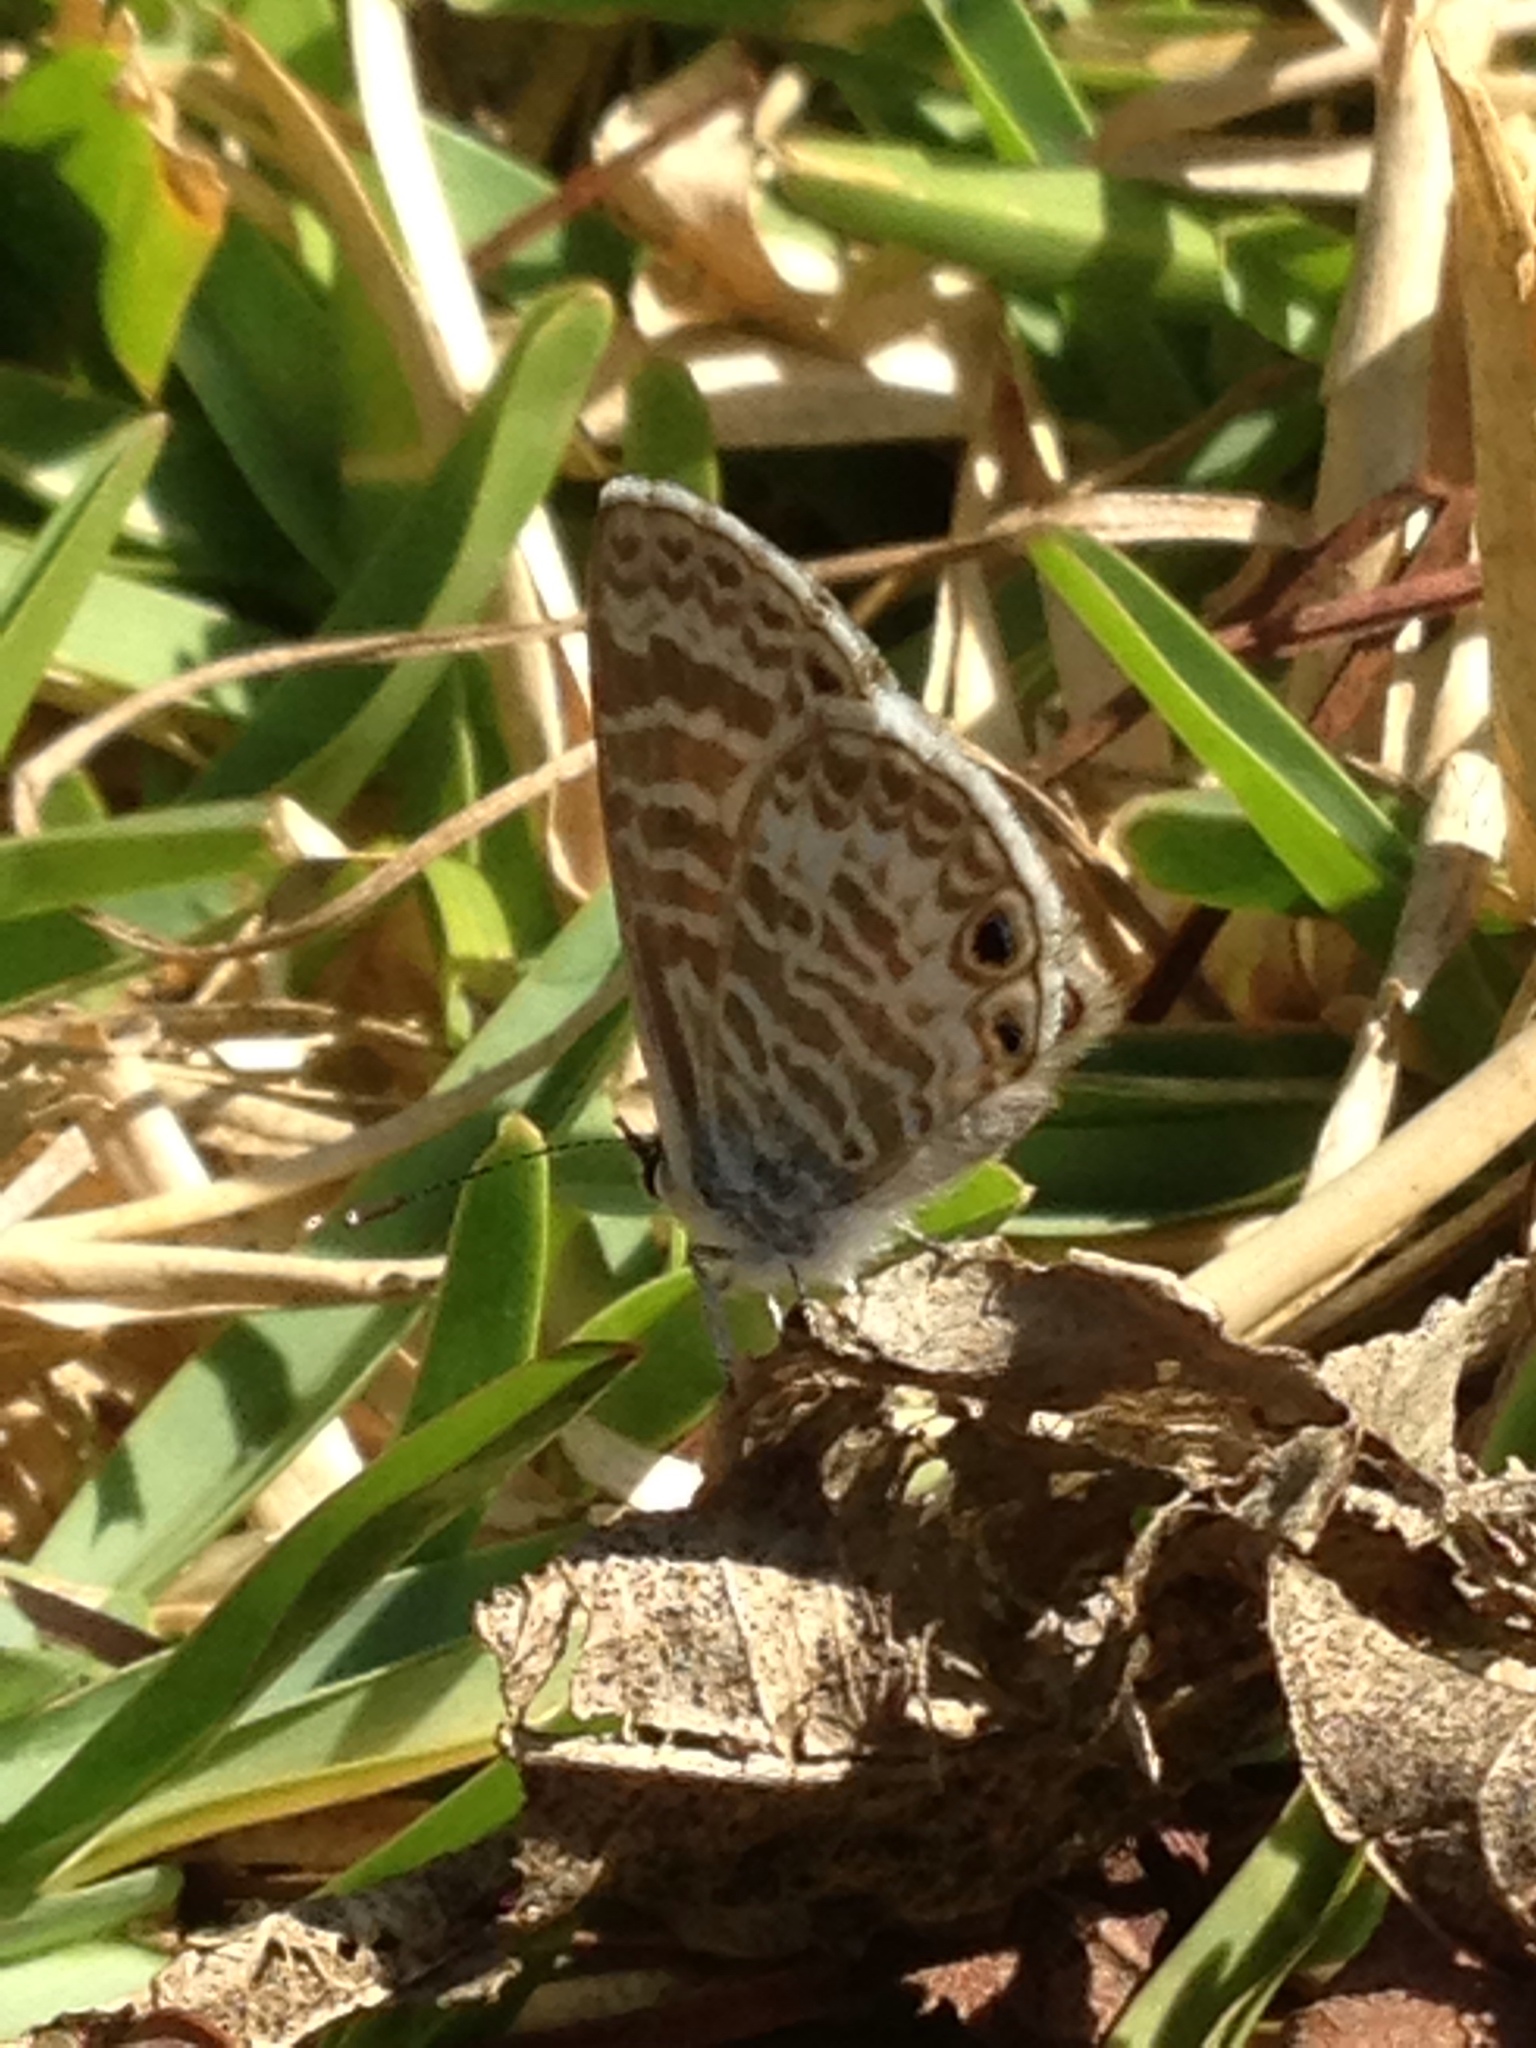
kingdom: Animalia
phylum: Arthropoda
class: Insecta
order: Lepidoptera
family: Lycaenidae
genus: Leptotes
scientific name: Leptotes marina
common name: Marine blue
